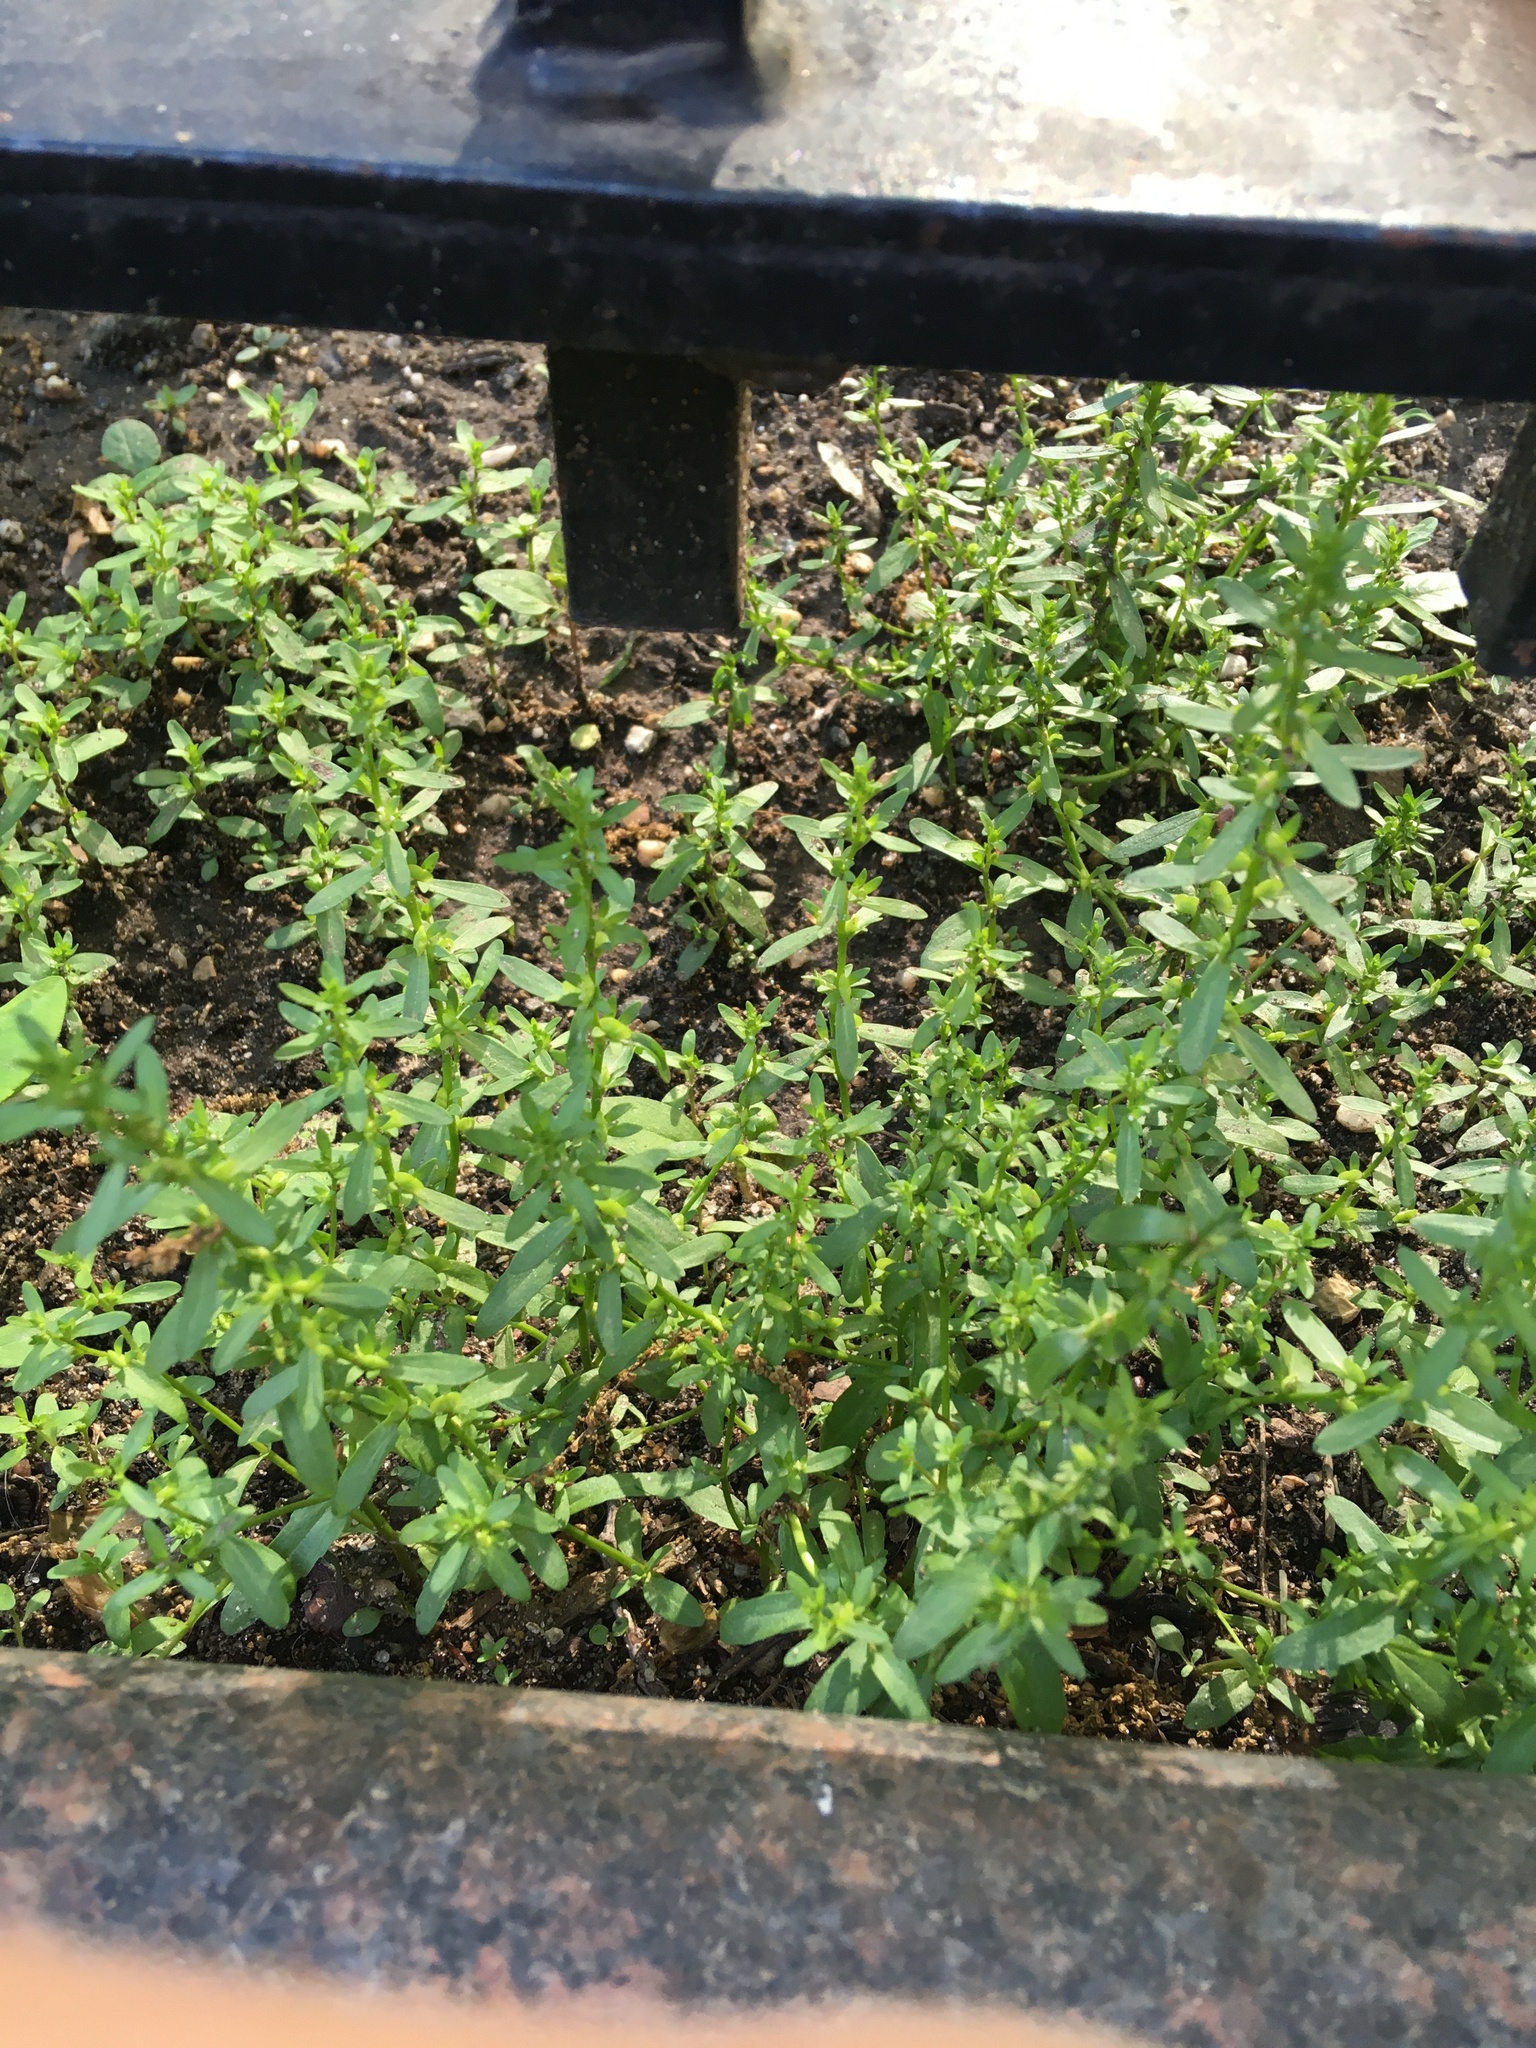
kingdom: Plantae
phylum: Tracheophyta
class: Magnoliopsida
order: Lamiales
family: Plantaginaceae
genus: Veronica
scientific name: Veronica peregrina
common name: Neckweed
